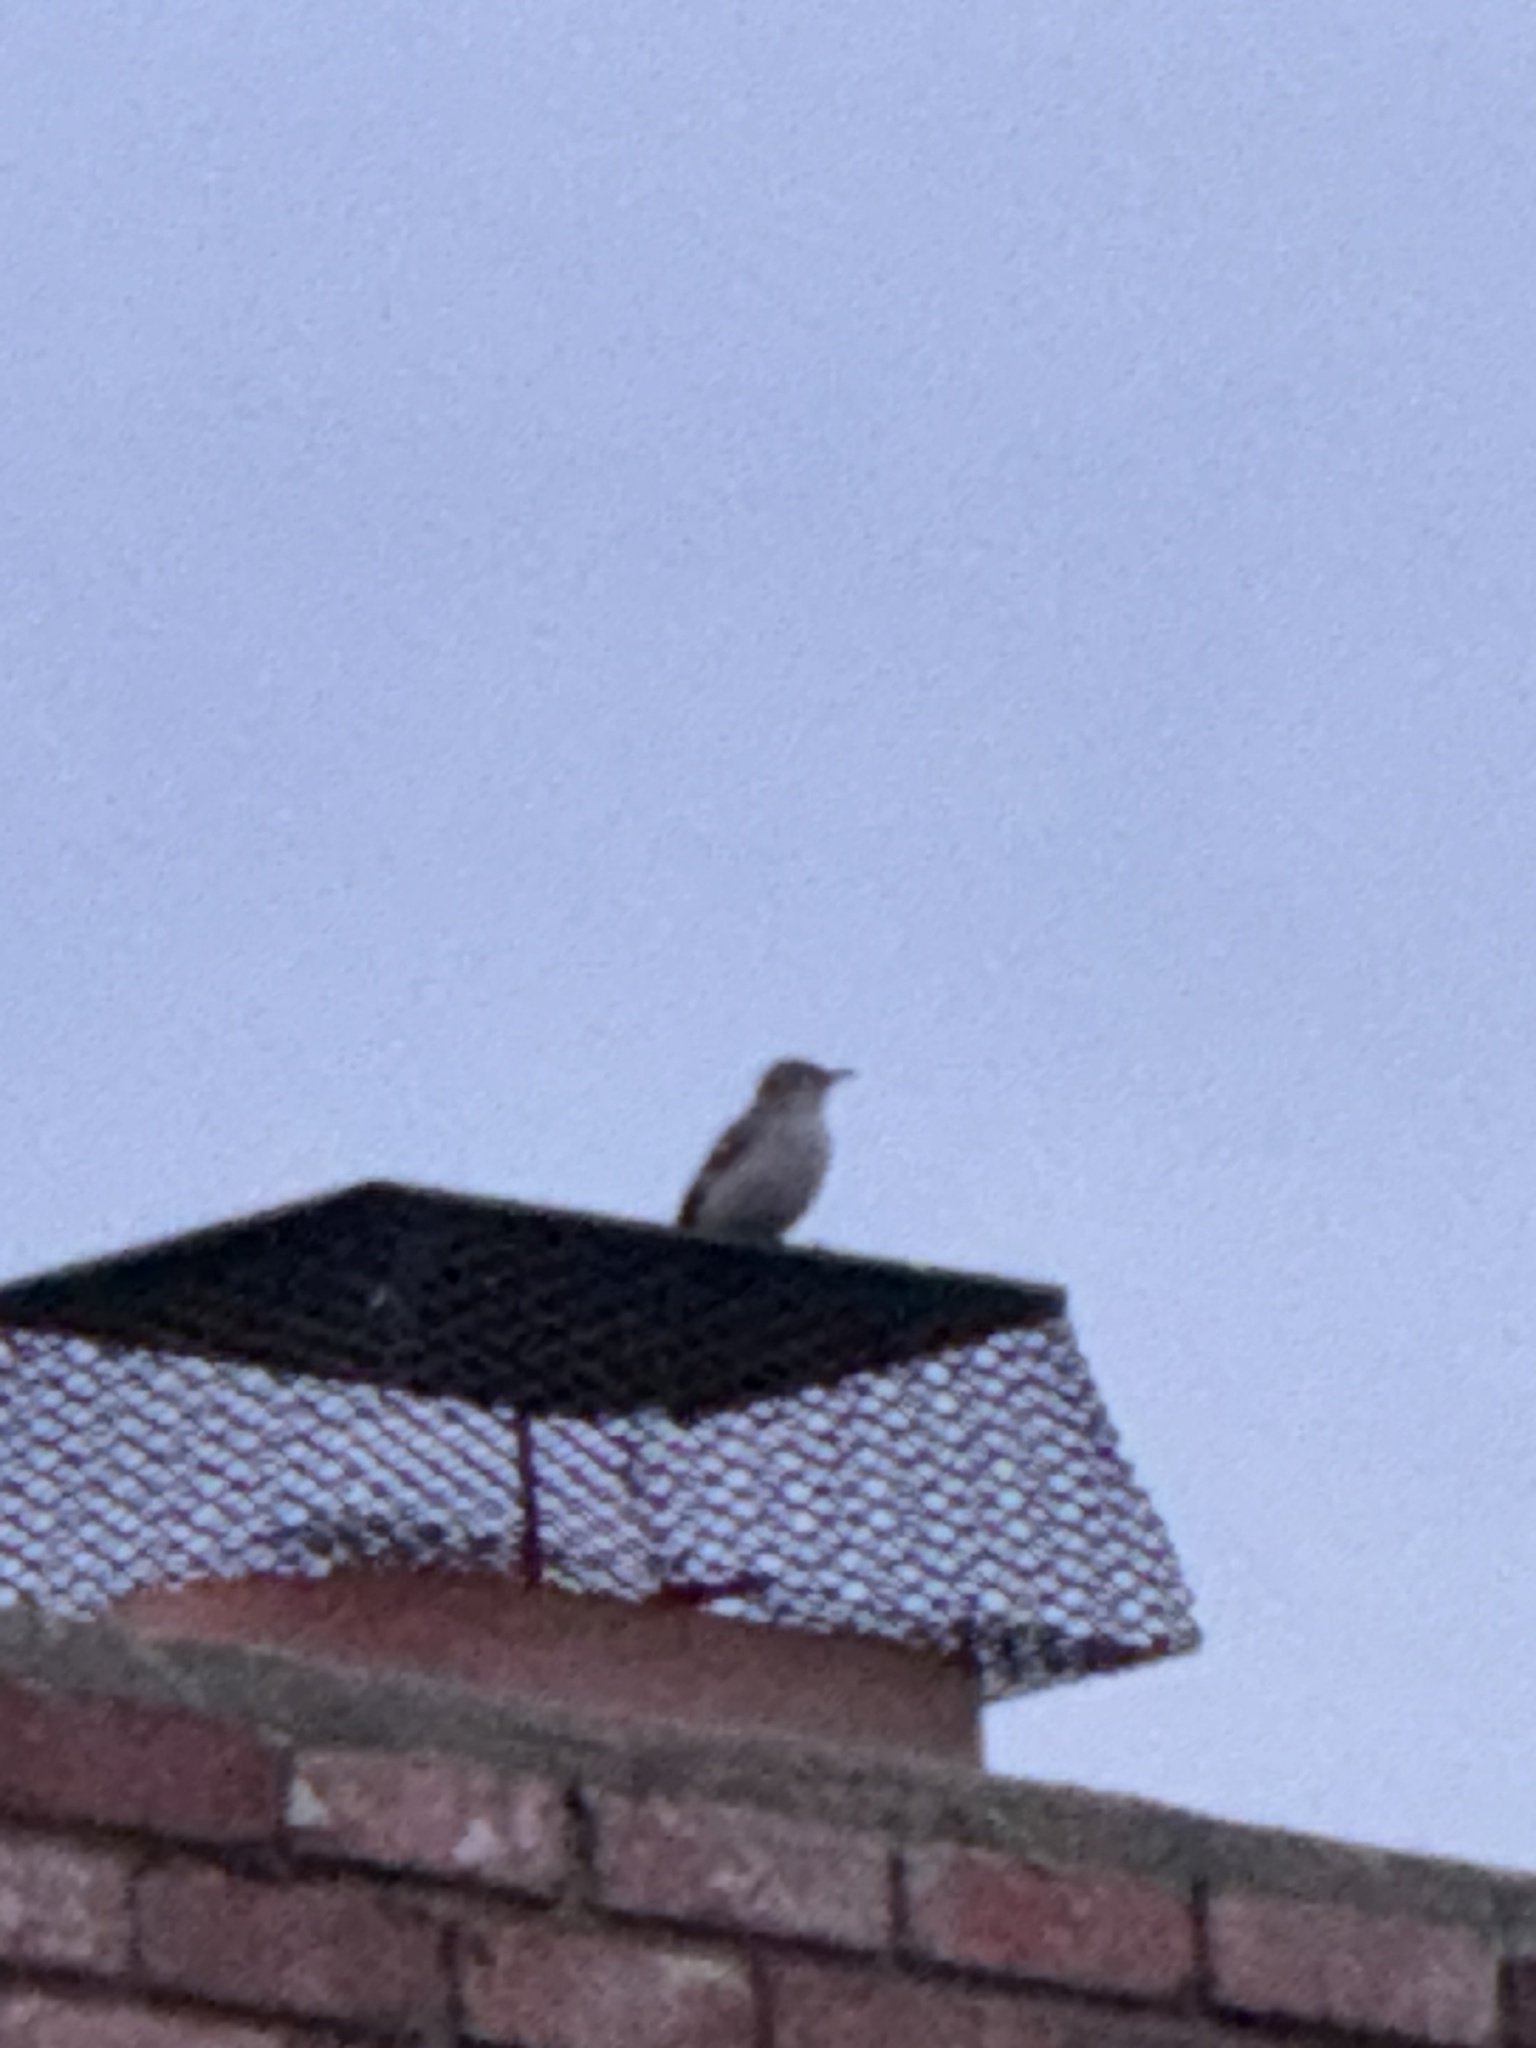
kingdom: Animalia
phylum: Chordata
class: Aves
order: Passeriformes
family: Mimidae
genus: Mimus
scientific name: Mimus polyglottos
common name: Northern mockingbird
